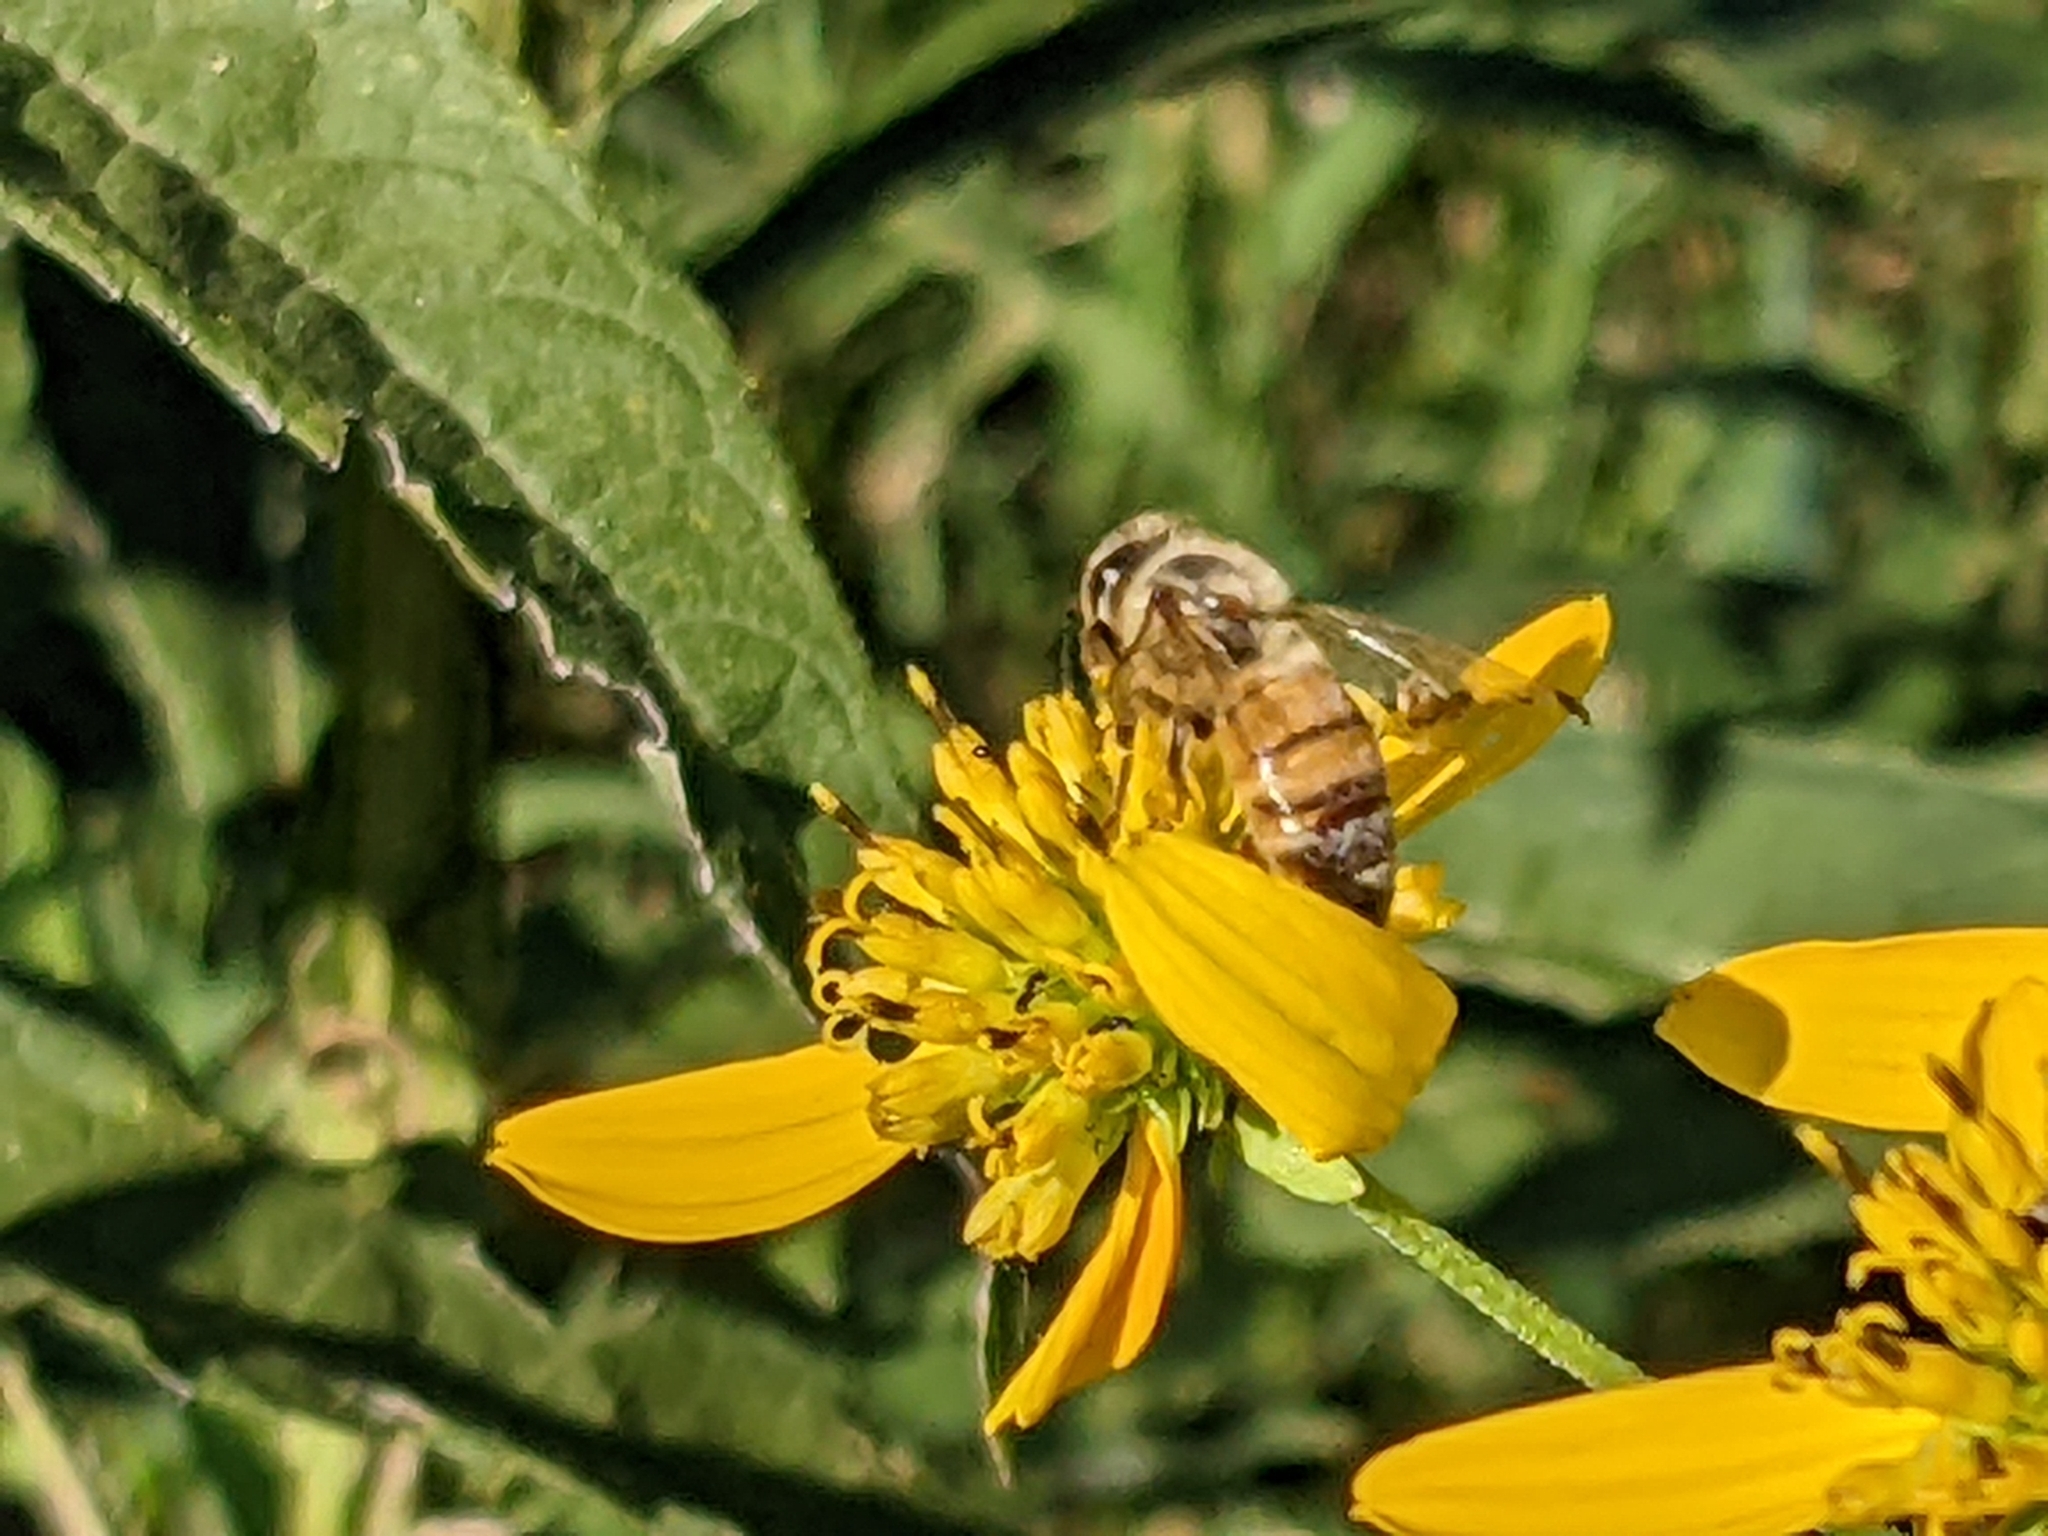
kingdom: Animalia
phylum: Arthropoda
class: Insecta
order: Hymenoptera
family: Apidae
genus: Apis
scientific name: Apis mellifera
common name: Honey bee
